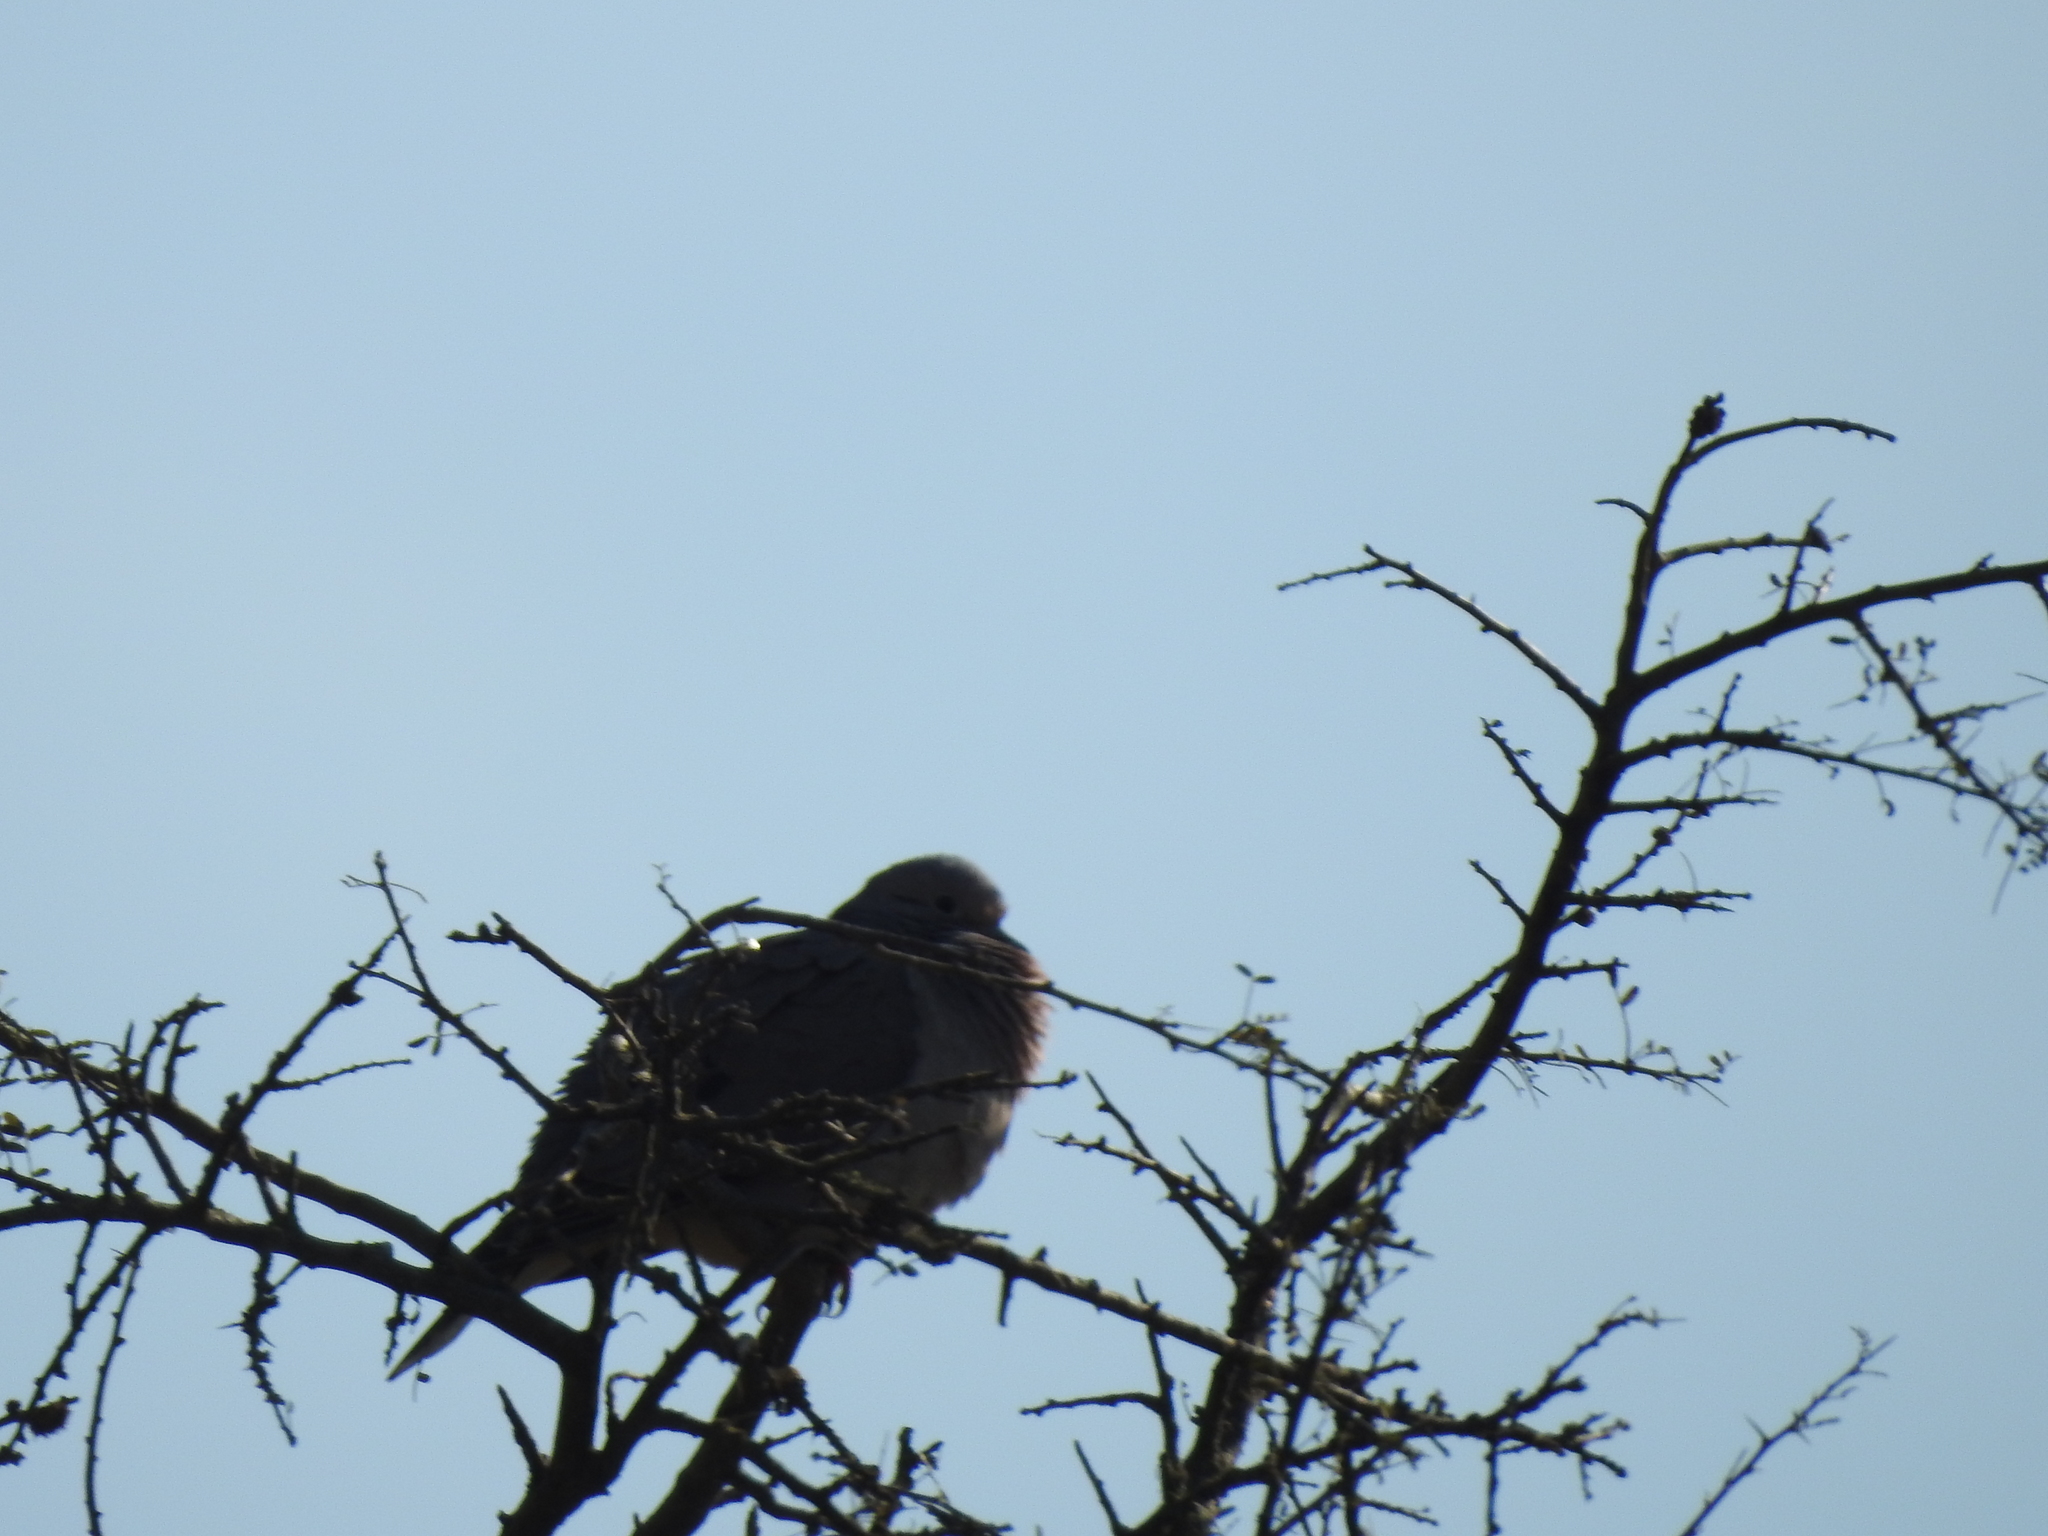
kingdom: Animalia
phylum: Chordata
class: Aves
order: Columbiformes
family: Columbidae
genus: Zenaida
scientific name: Zenaida auriculata
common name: Eared dove
